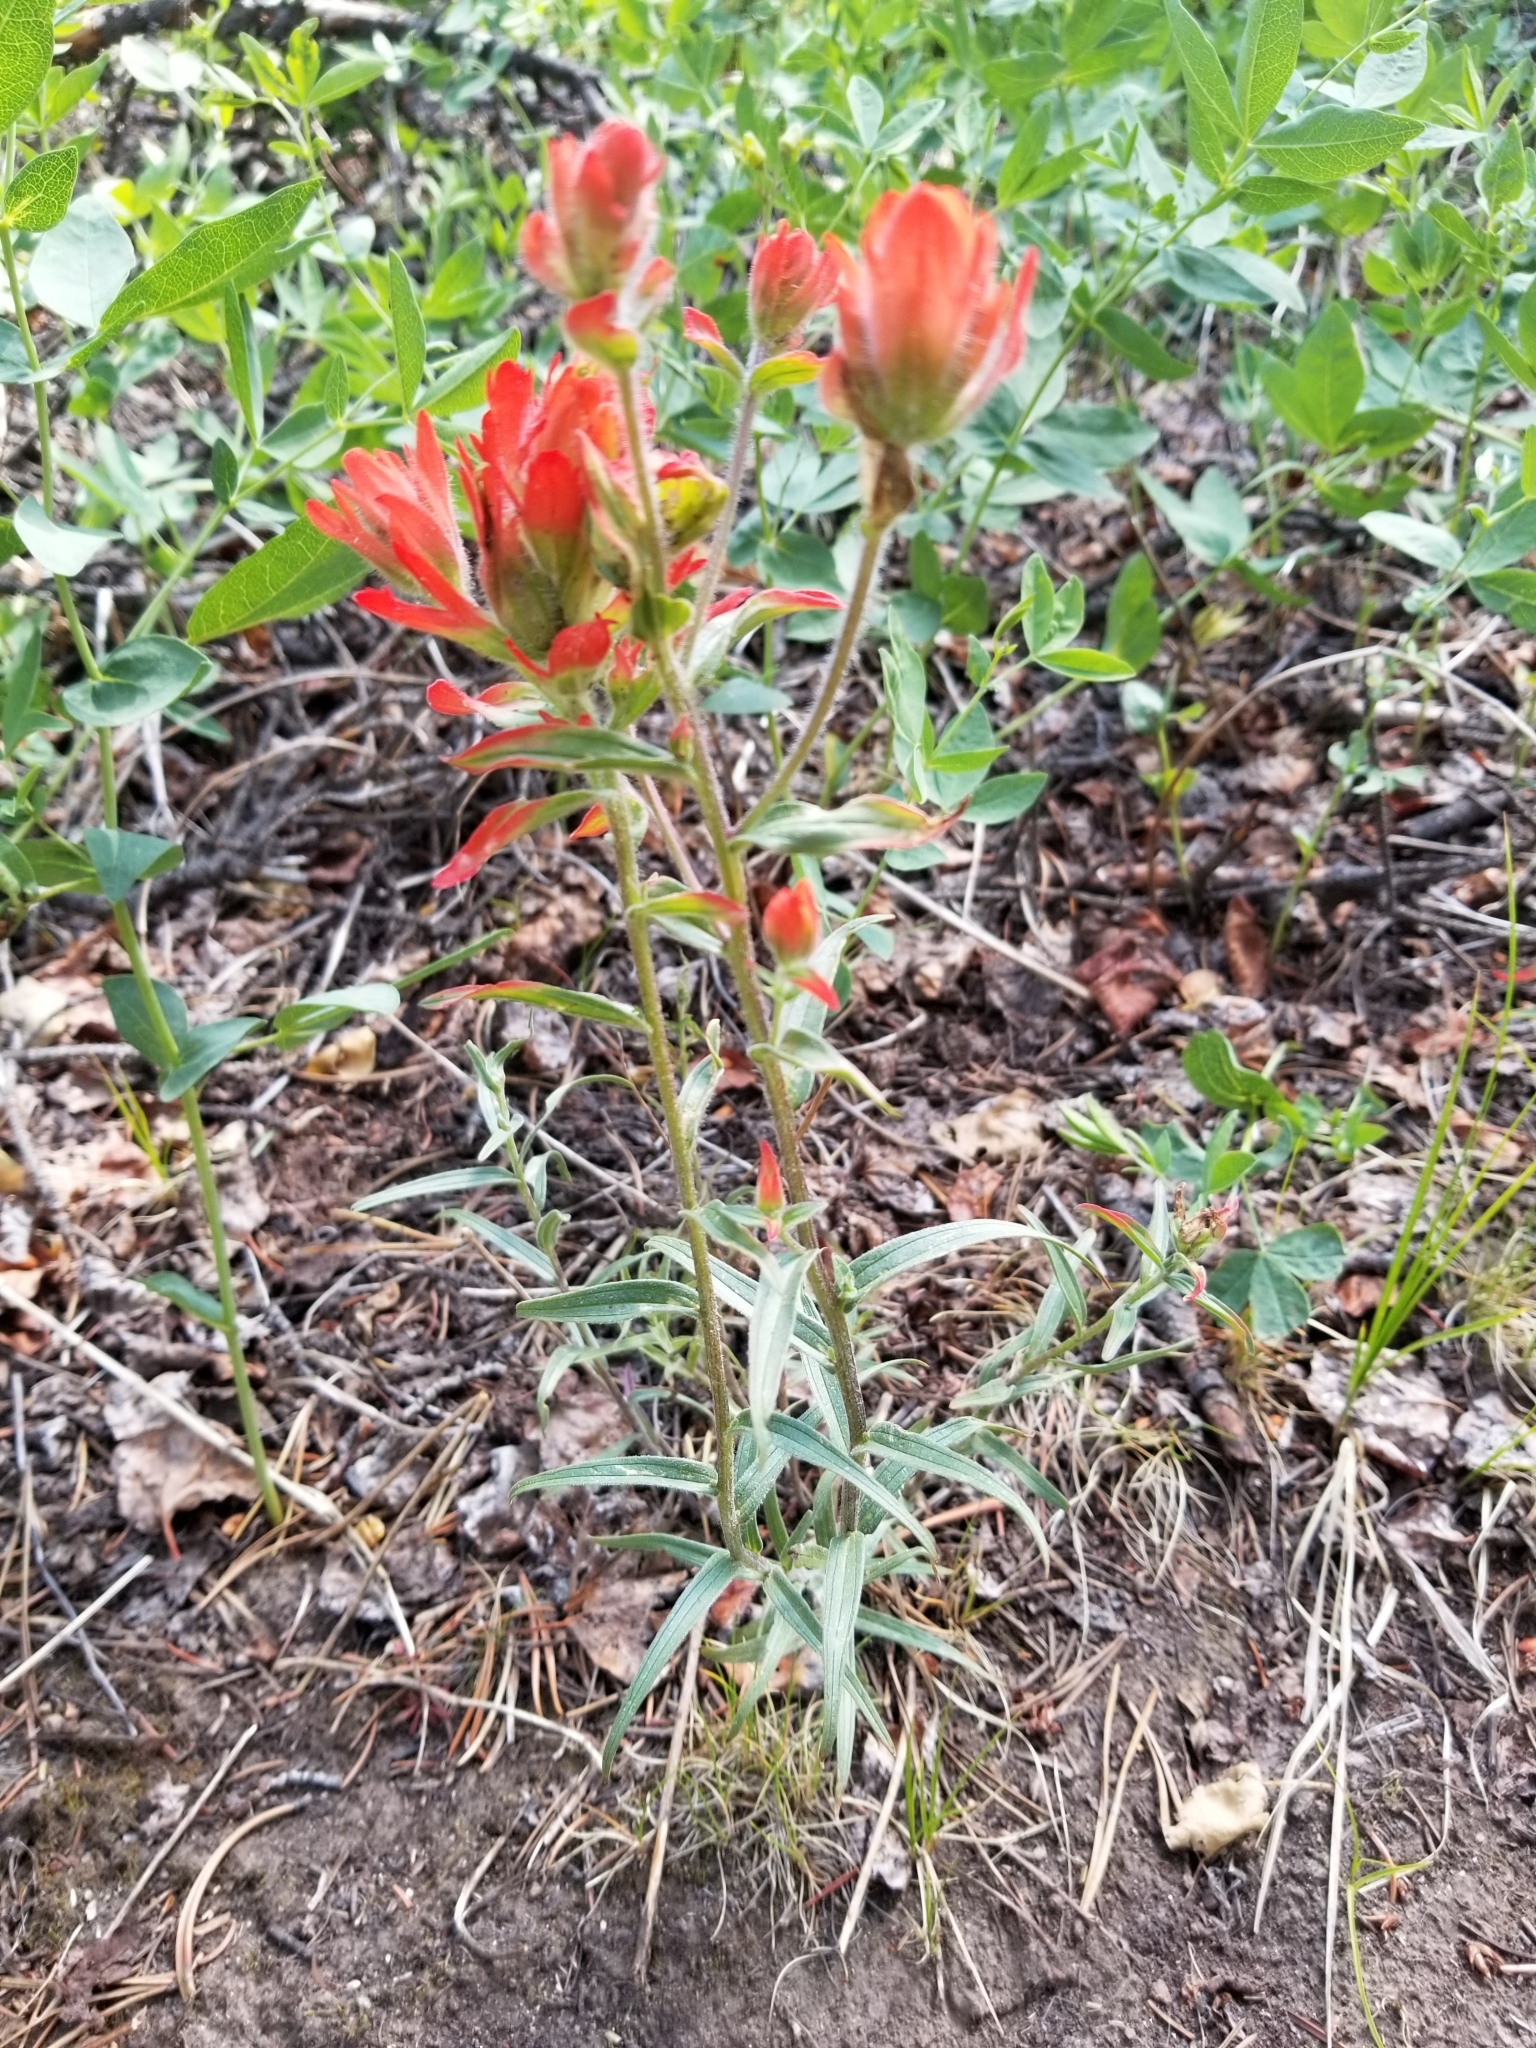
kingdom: Plantae
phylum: Tracheophyta
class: Magnoliopsida
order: Lamiales
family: Orobanchaceae
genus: Castilleja
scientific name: Castilleja miniata
